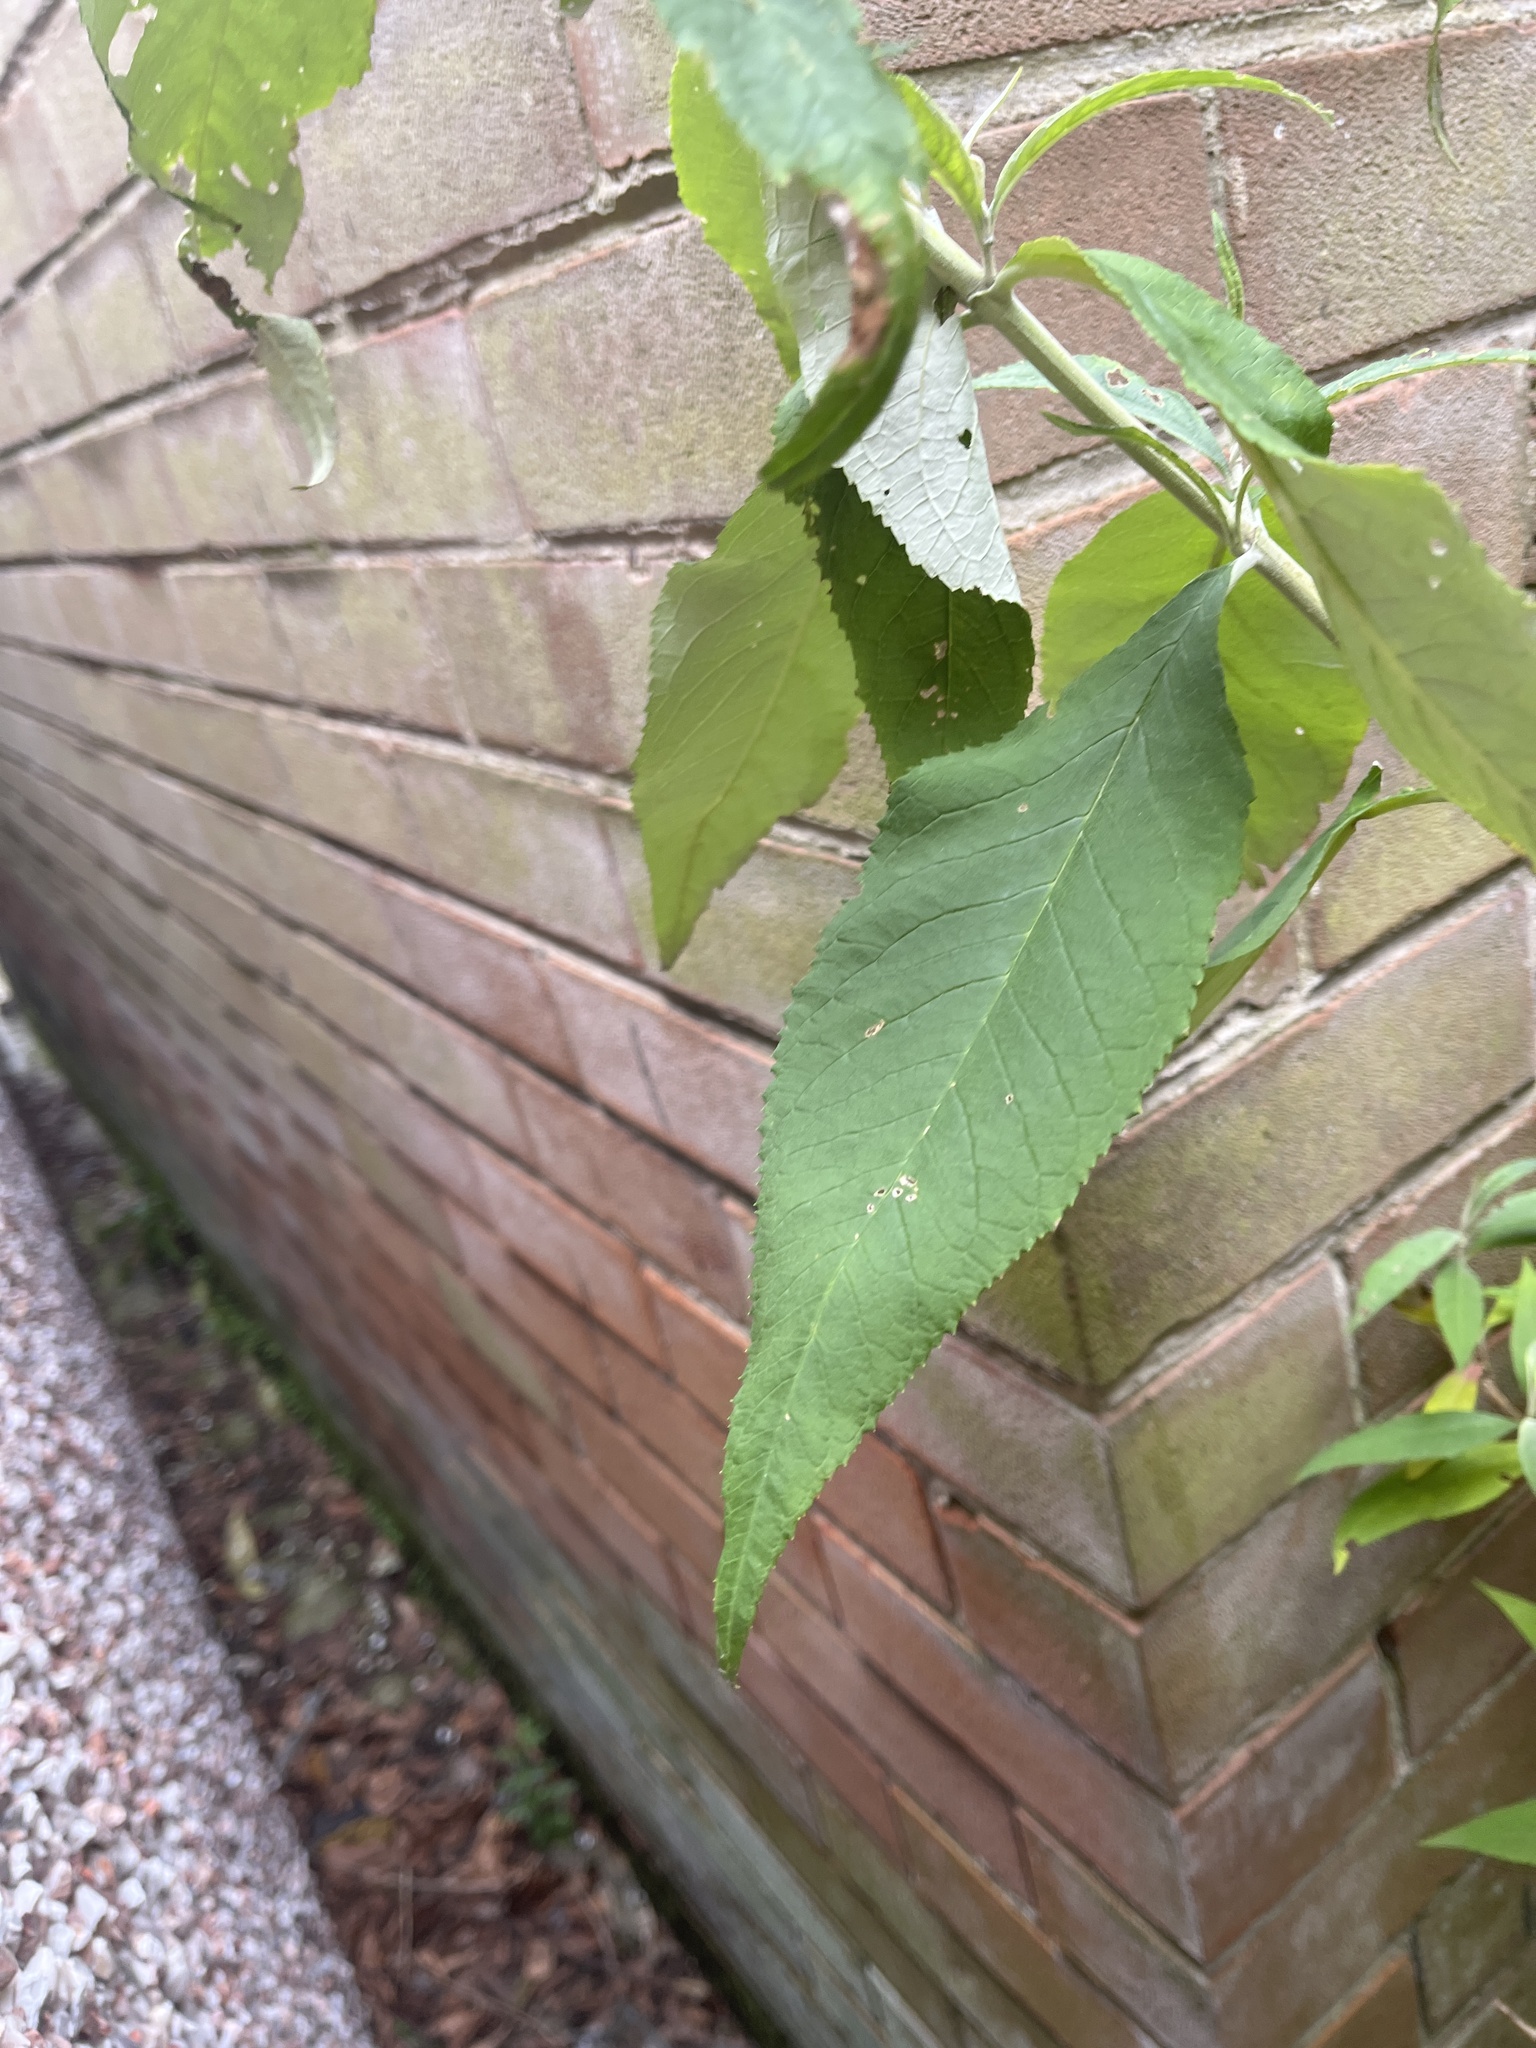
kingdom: Plantae
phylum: Tracheophyta
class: Magnoliopsida
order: Lamiales
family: Scrophulariaceae
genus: Buddleja
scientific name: Buddleja davidii
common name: Butterfly-bush
